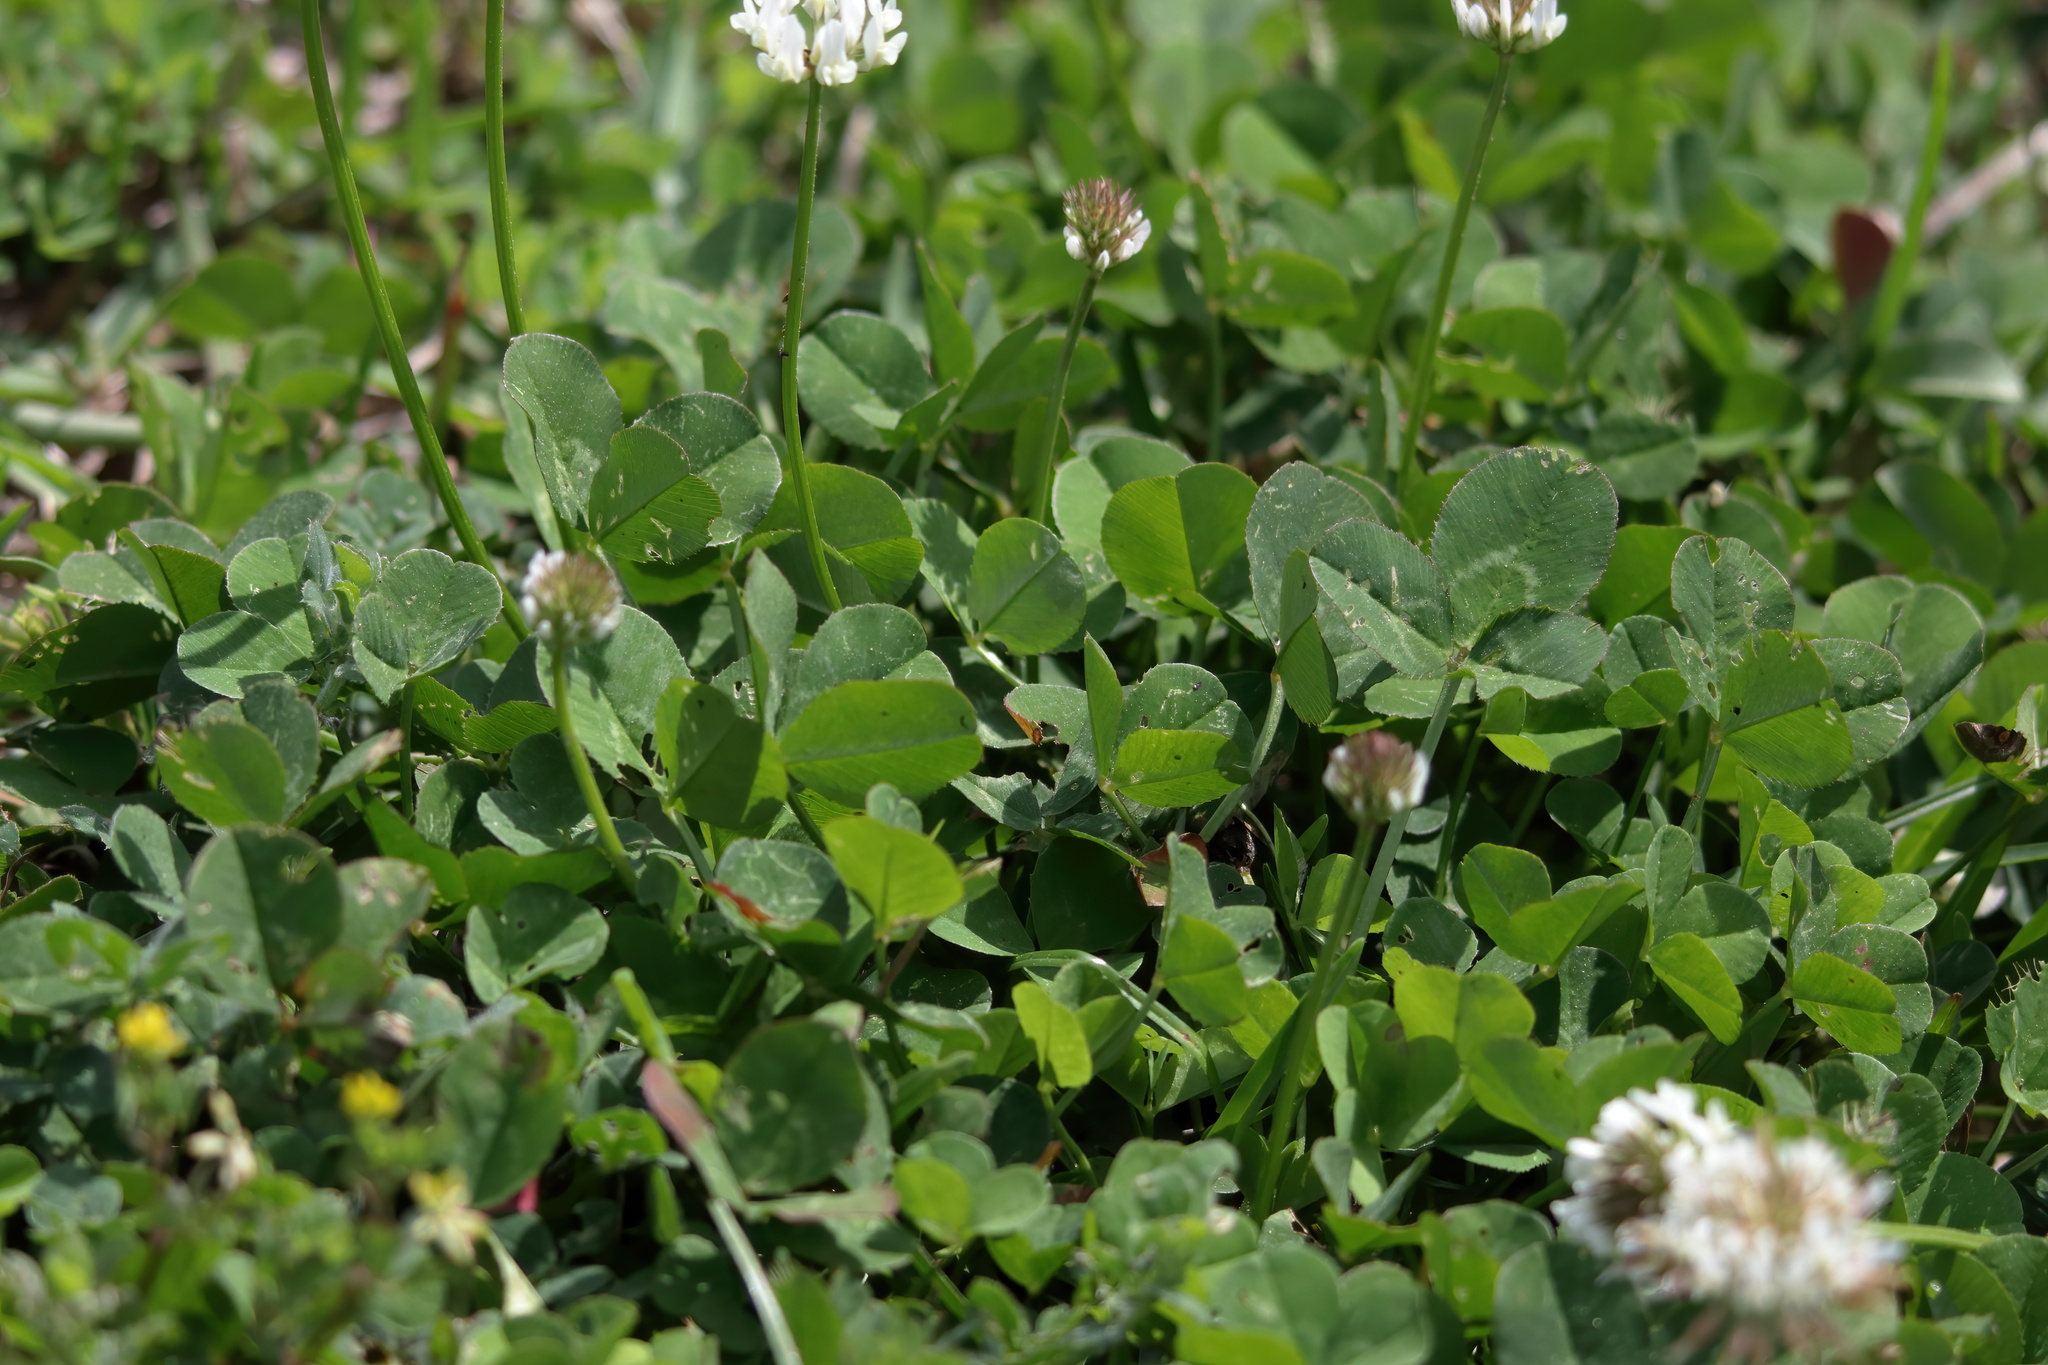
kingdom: Plantae
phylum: Tracheophyta
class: Magnoliopsida
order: Fabales
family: Fabaceae
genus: Trifolium
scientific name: Trifolium repens
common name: White clover
